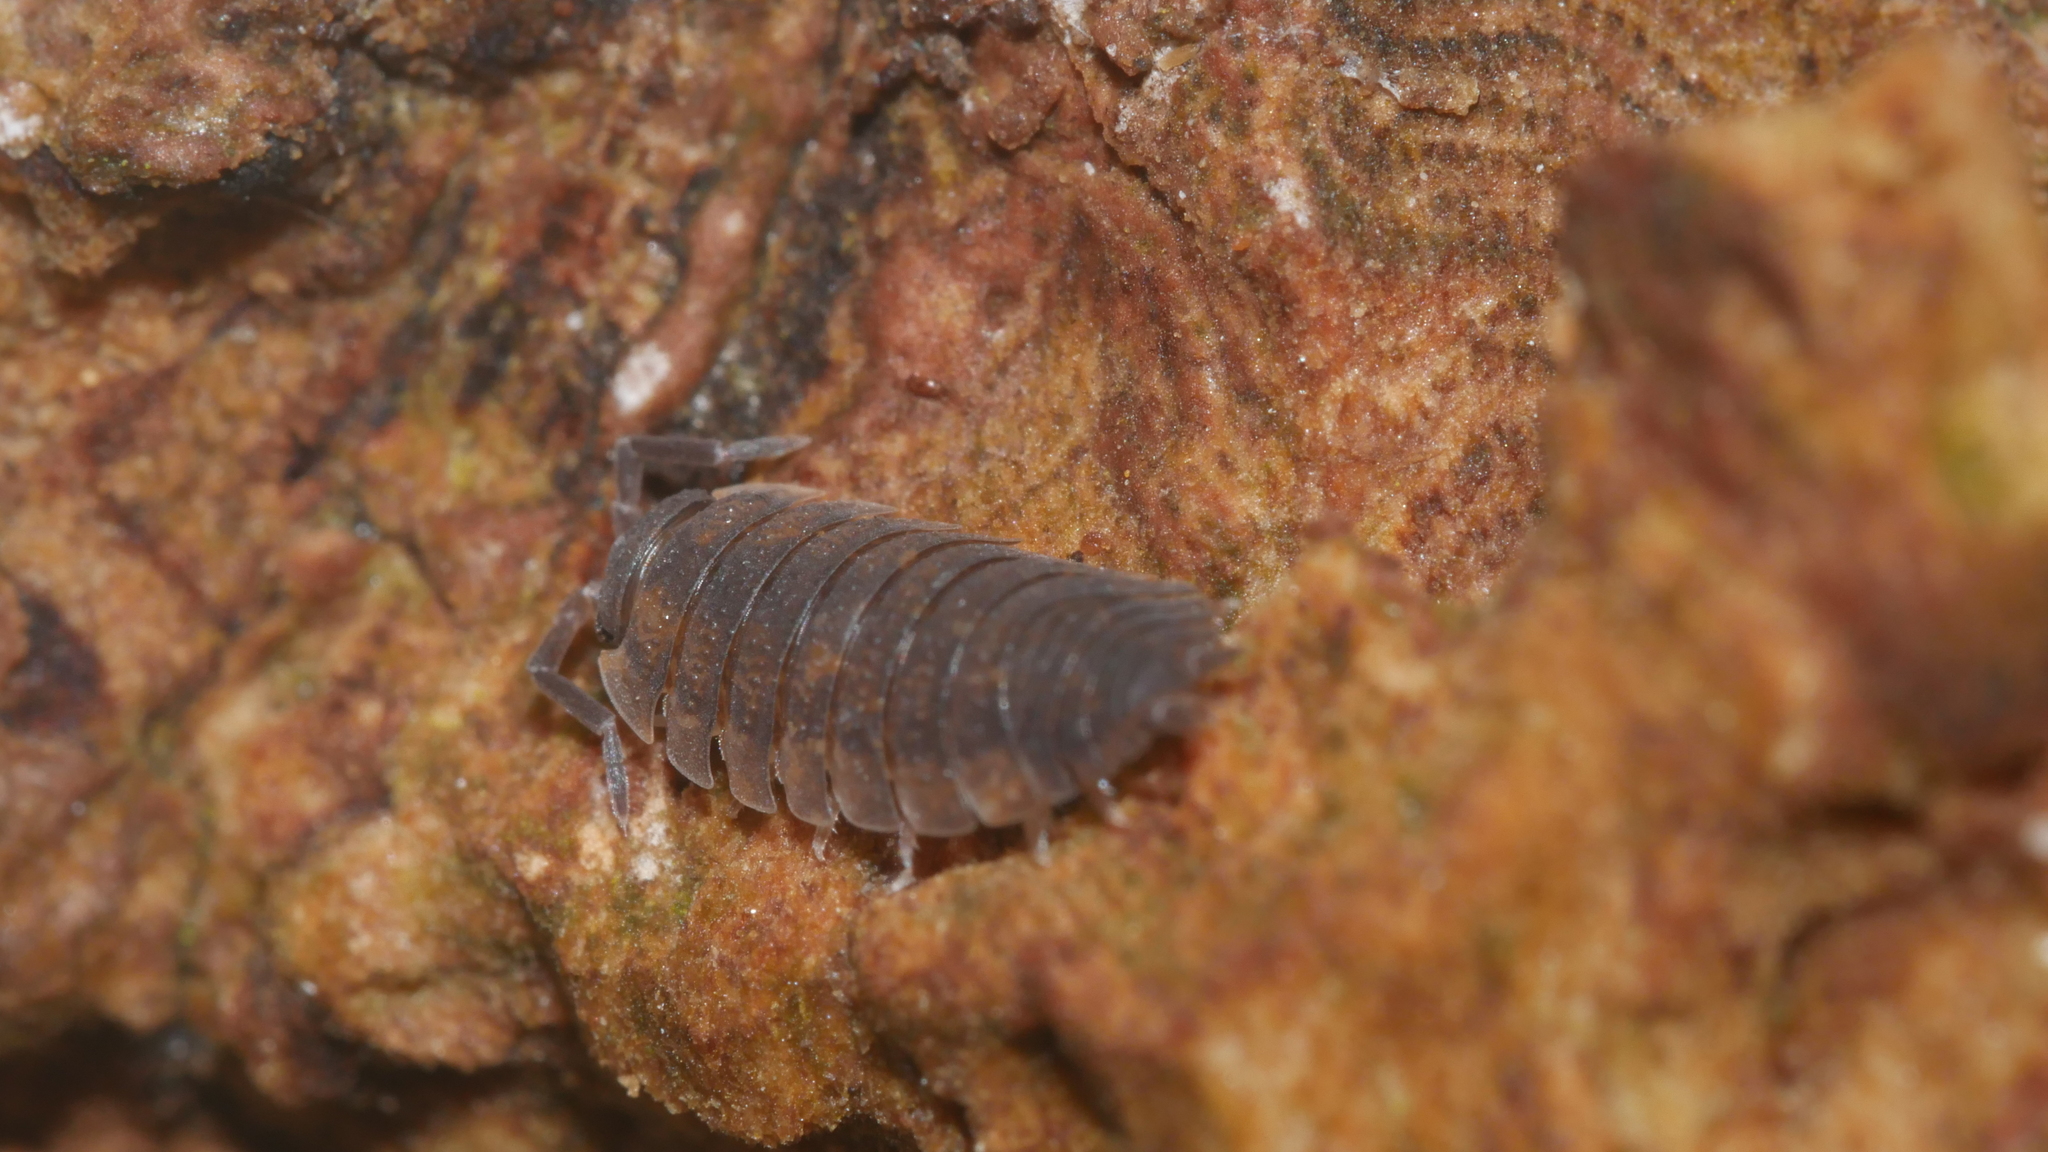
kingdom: Animalia
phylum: Arthropoda
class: Malacostraca
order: Isopoda
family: Porcellionidae
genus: Porcellio
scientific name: Porcellio scaber
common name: Common rough woodlouse
